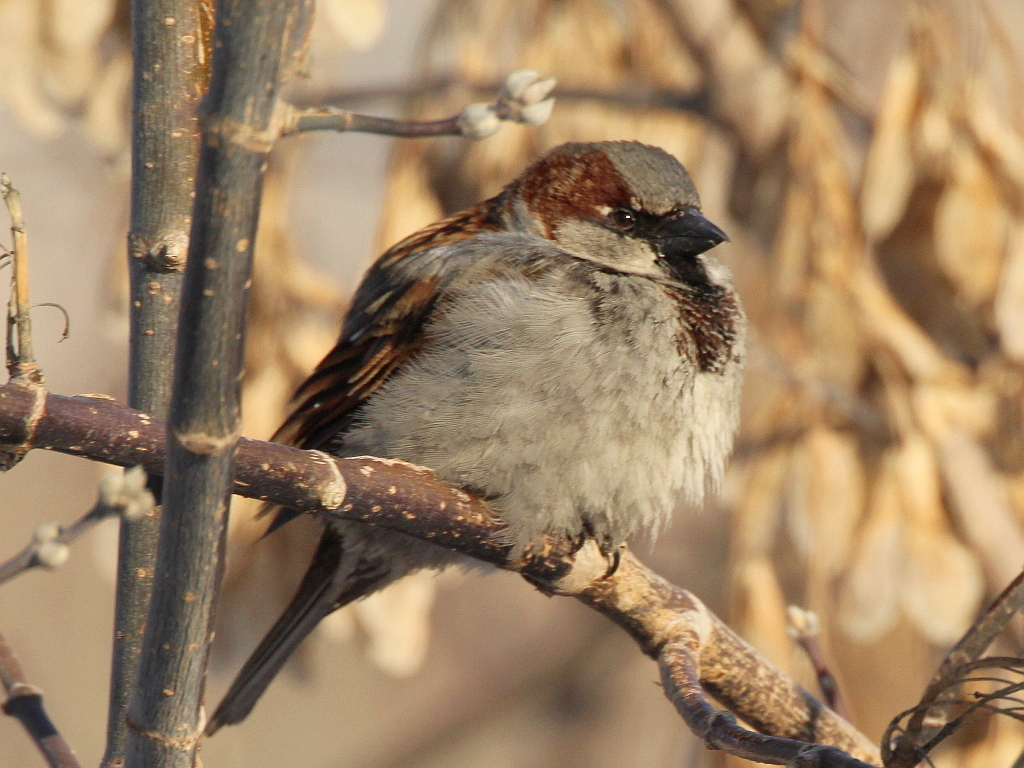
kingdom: Animalia
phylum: Chordata
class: Aves
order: Passeriformes
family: Passeridae
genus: Passer
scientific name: Passer domesticus
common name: House sparrow
